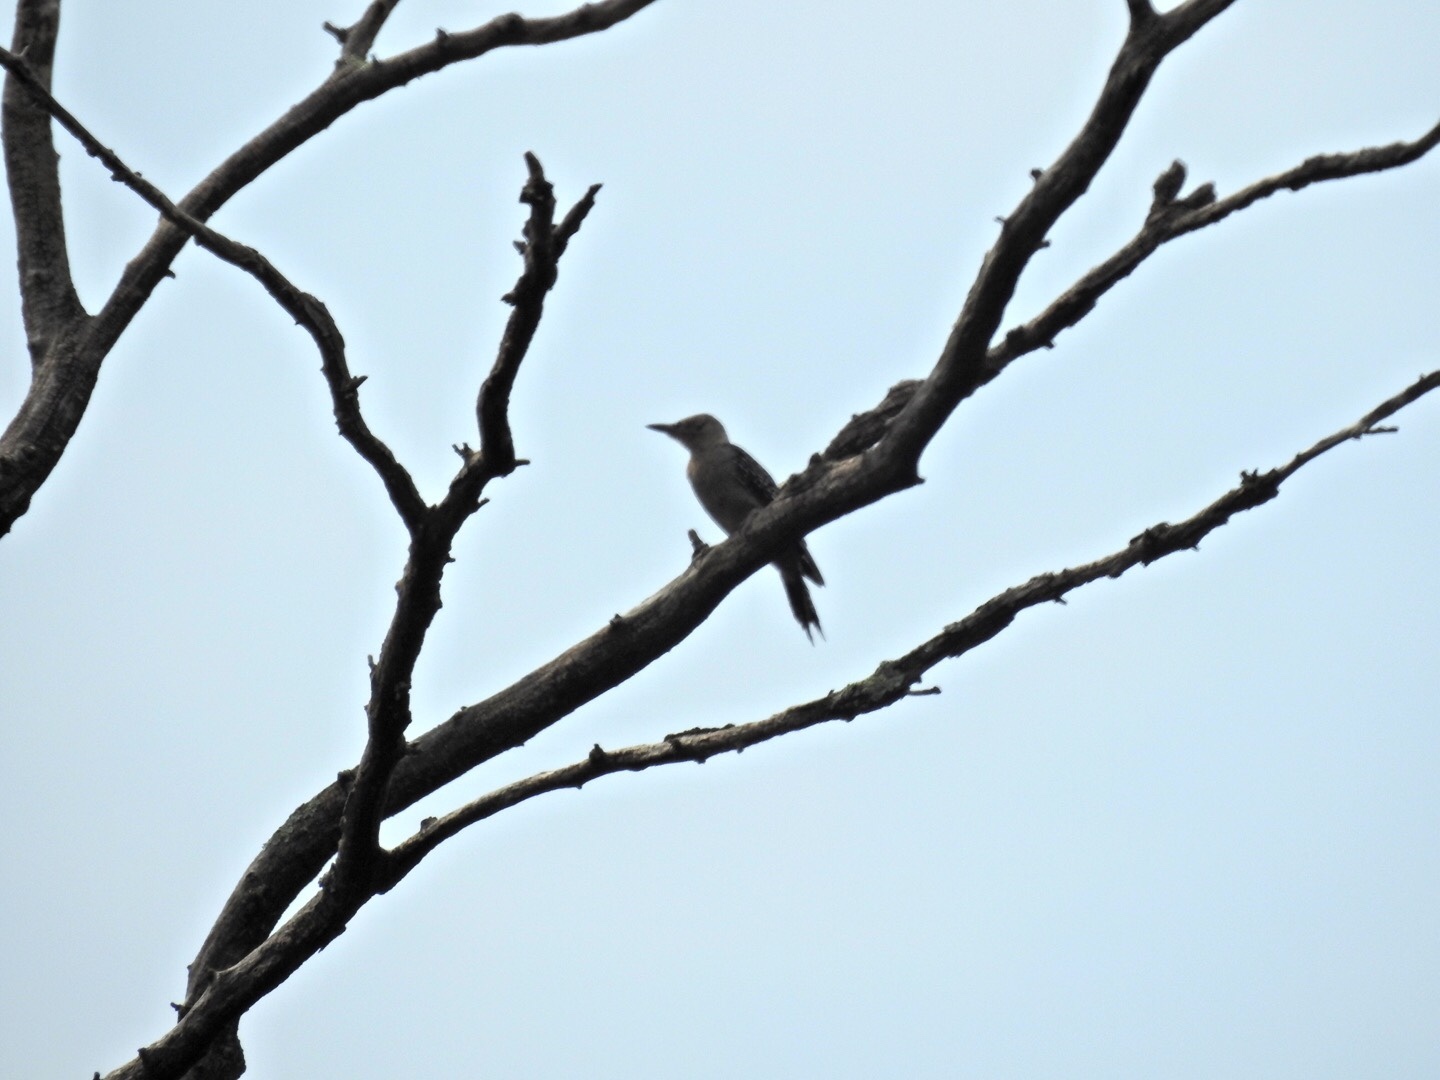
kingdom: Animalia
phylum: Chordata
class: Aves
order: Piciformes
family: Picidae
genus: Melanerpes
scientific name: Melanerpes carolinus
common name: Red-bellied woodpecker
